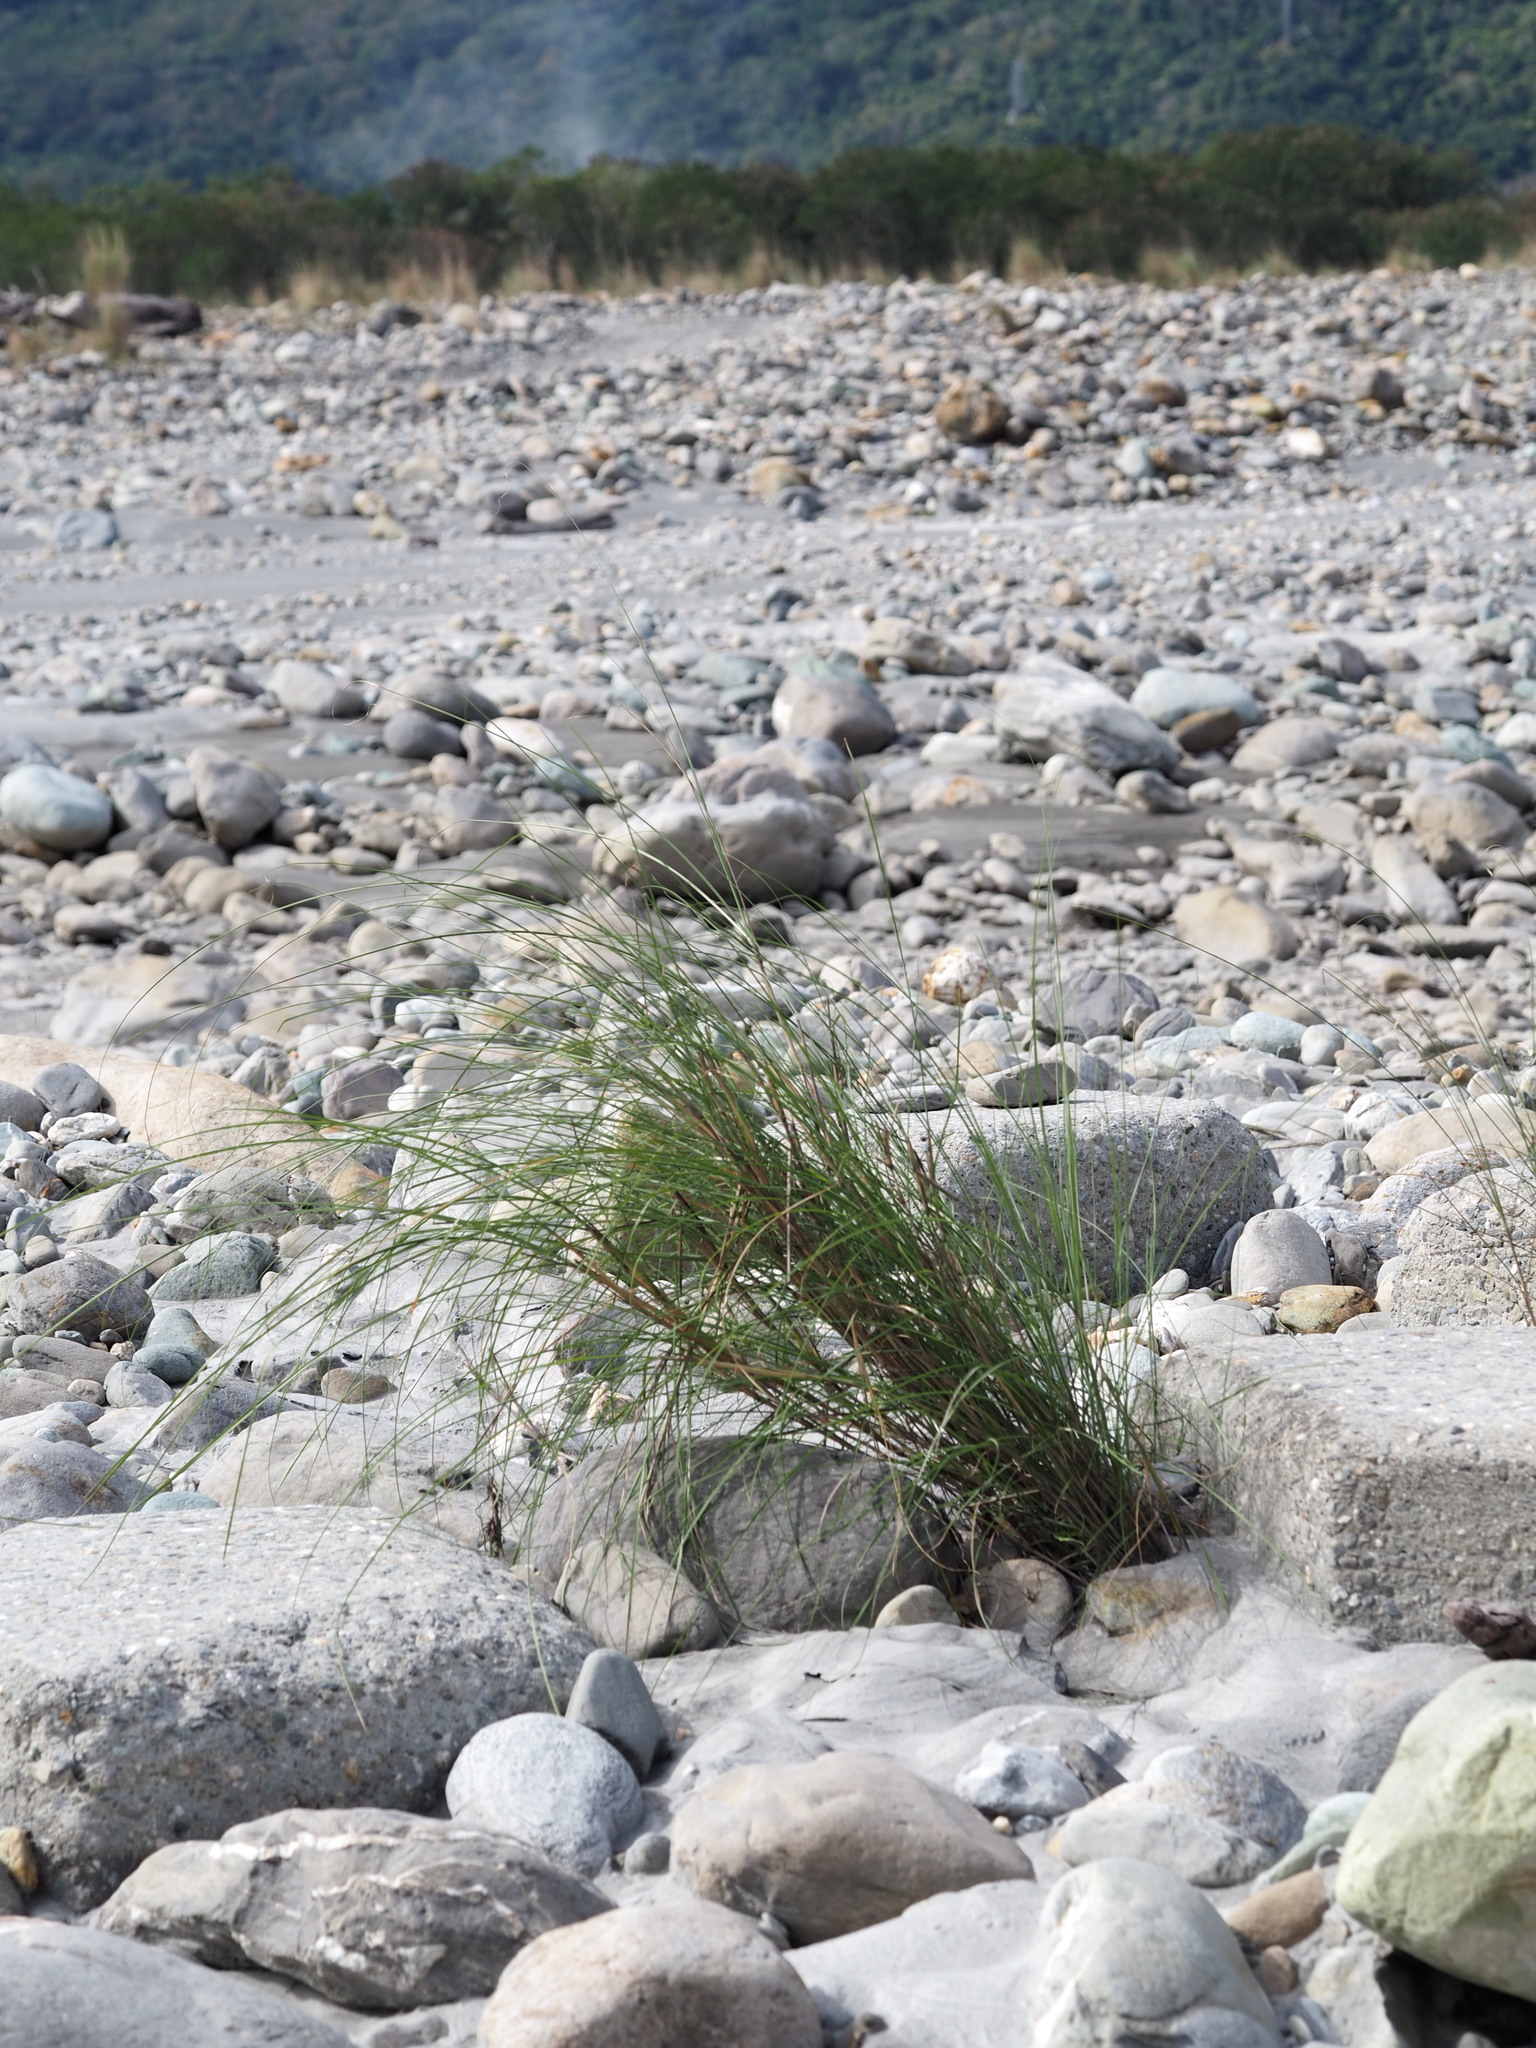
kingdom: Plantae
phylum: Tracheophyta
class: Liliopsida
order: Poales
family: Poaceae
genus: Saccharum
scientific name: Saccharum spontaneum
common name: Wild sugarcane
